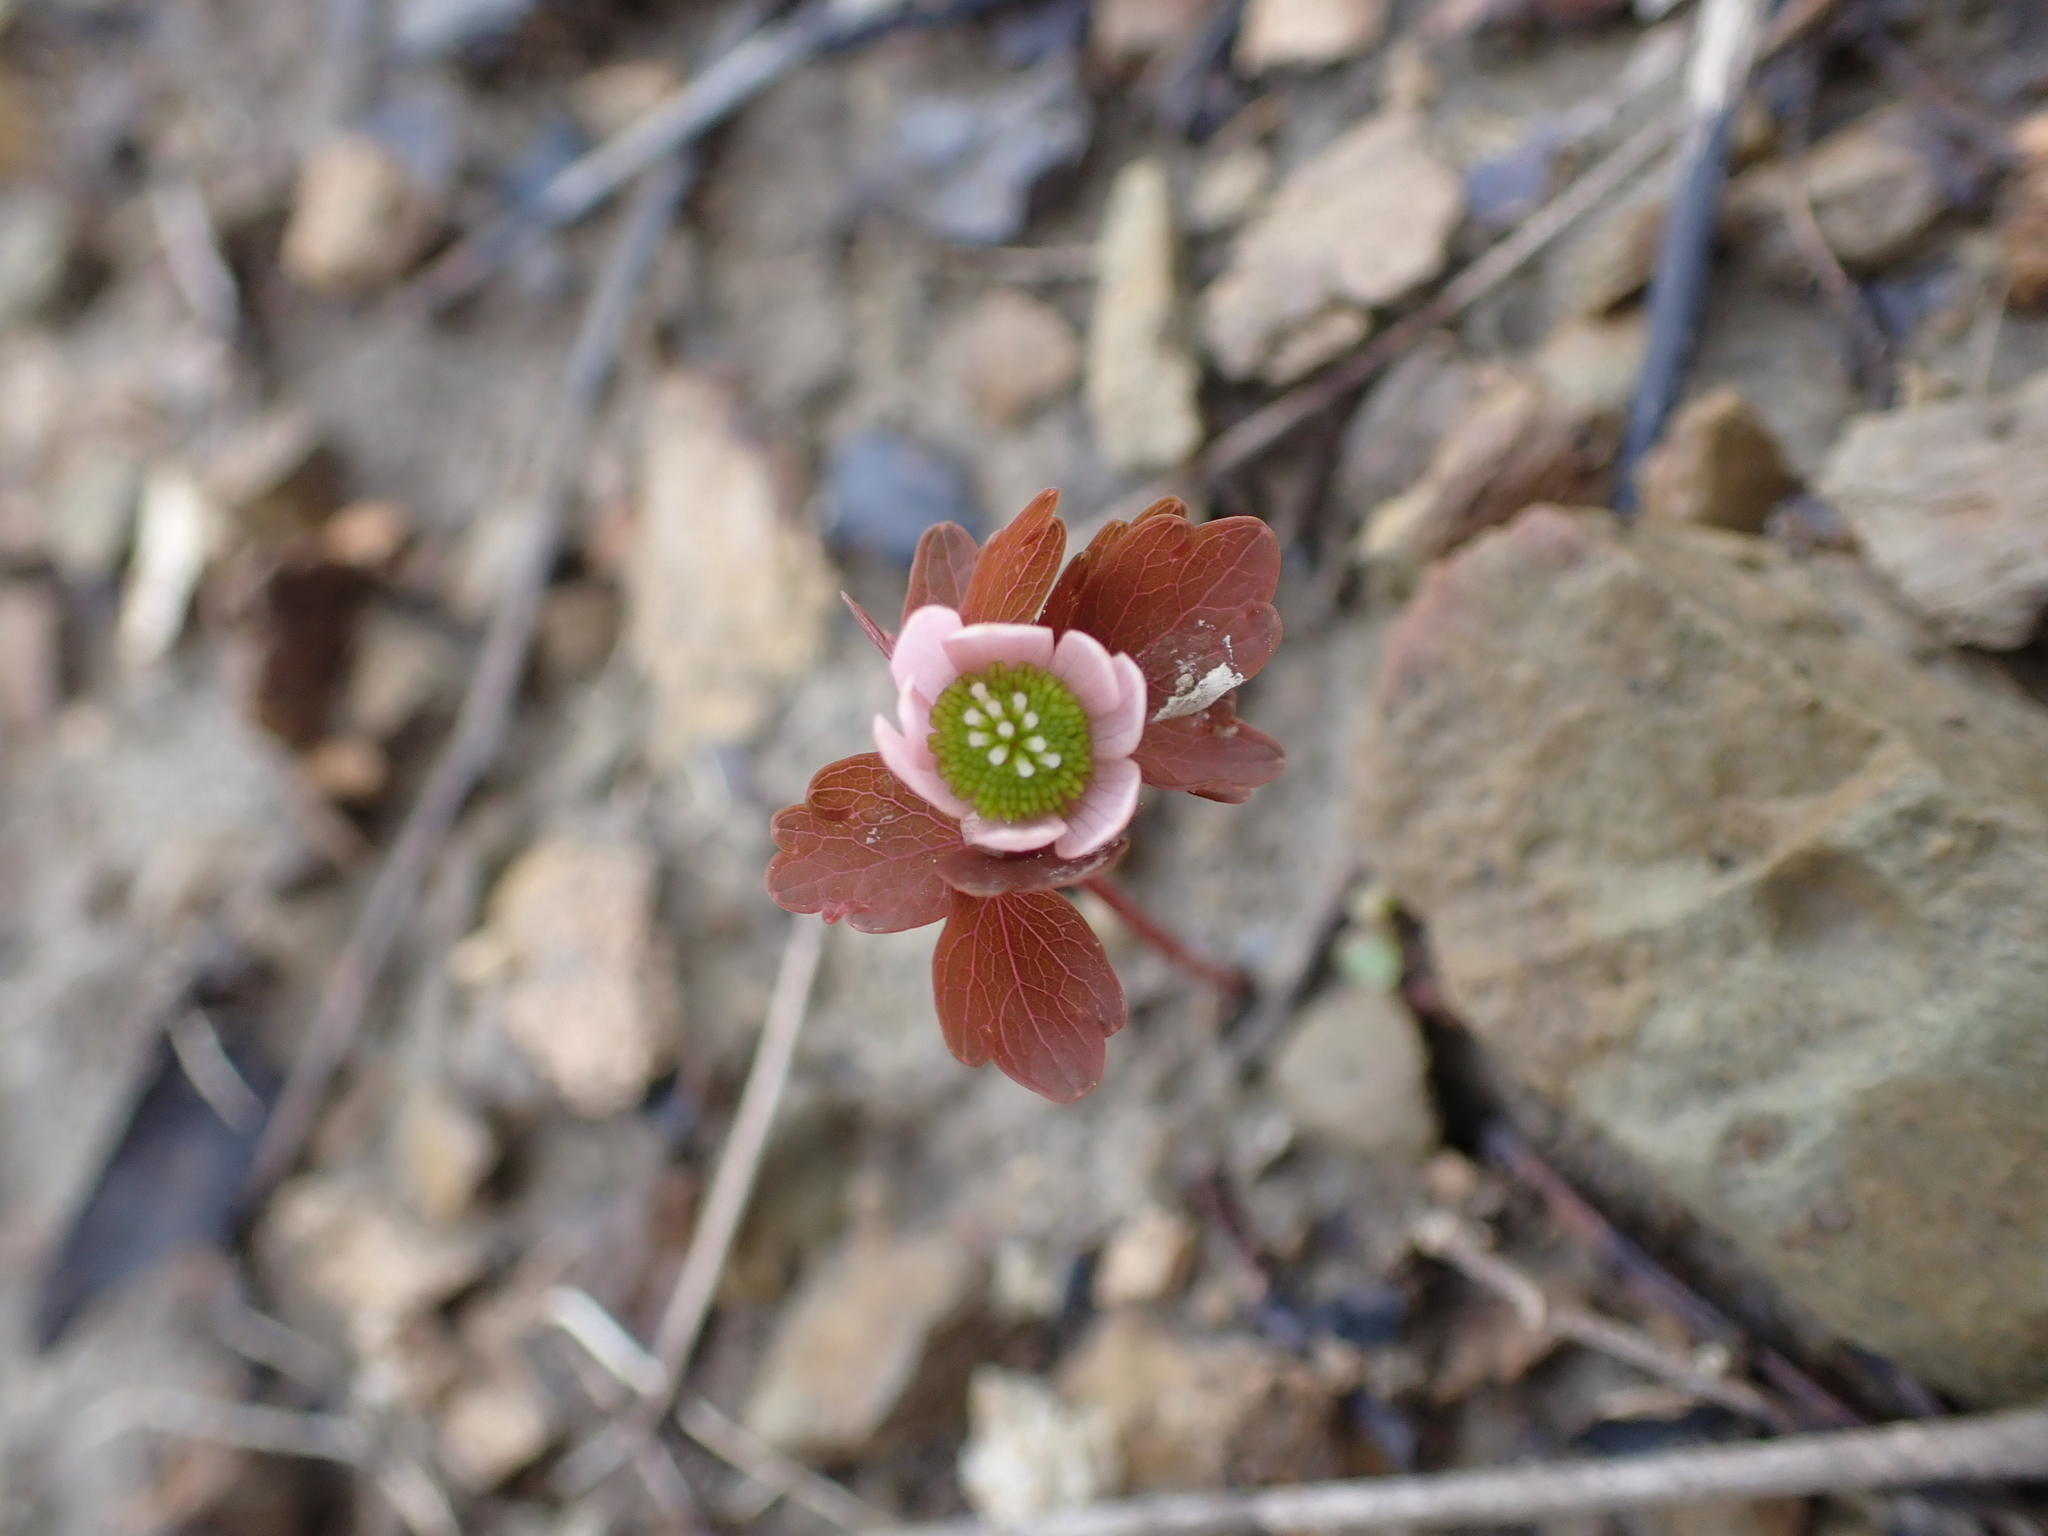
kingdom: Plantae
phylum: Tracheophyta
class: Magnoliopsida
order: Ranunculales
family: Ranunculaceae
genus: Thalictrum
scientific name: Thalictrum thalictroides
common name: Rue-anemone
